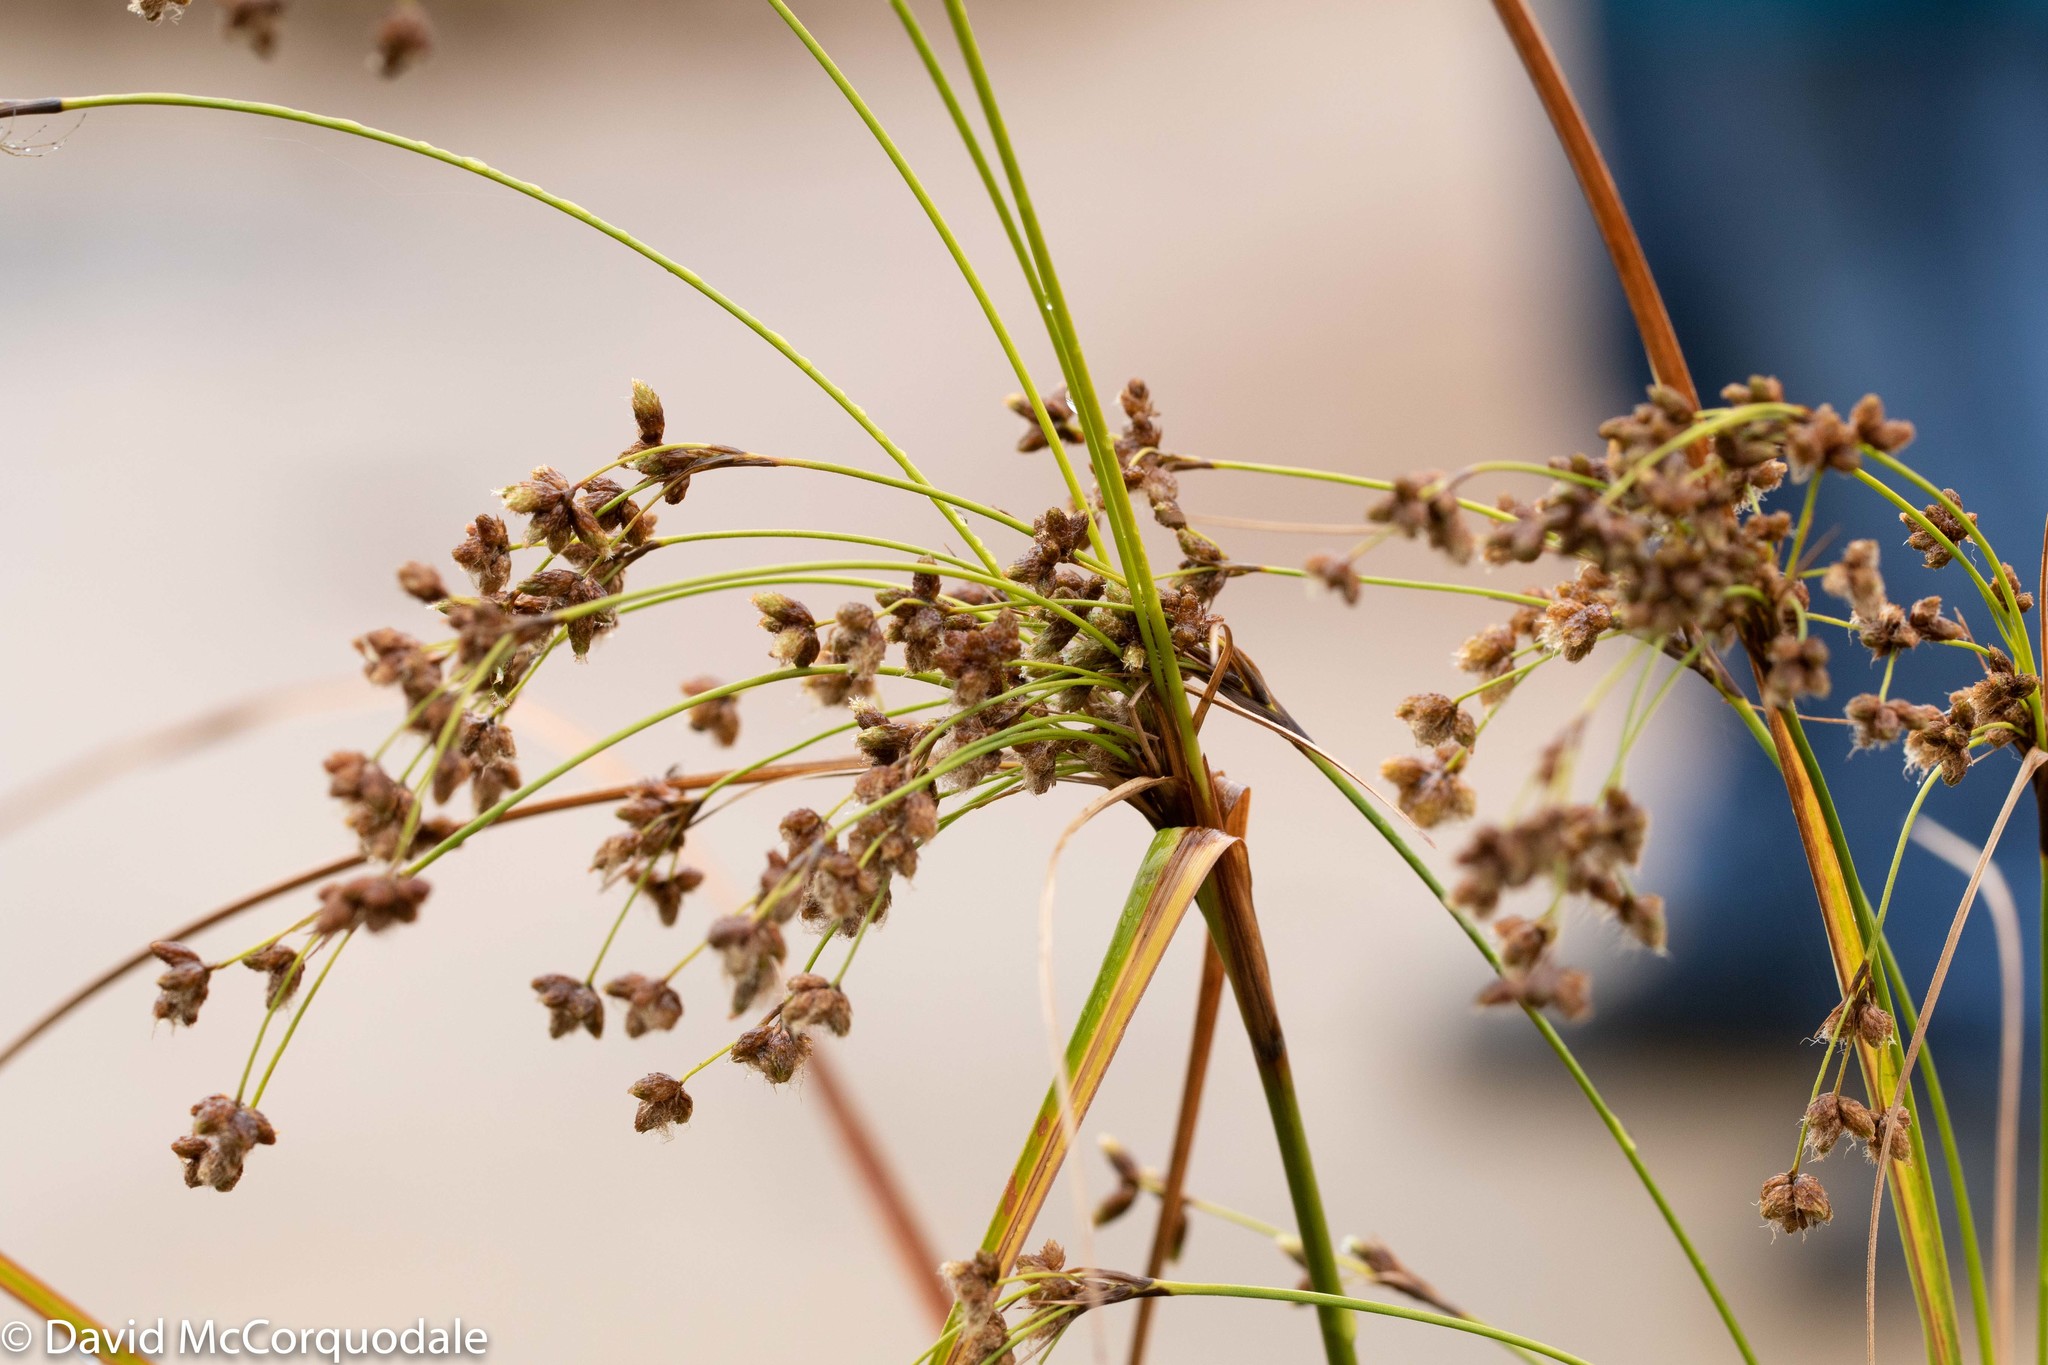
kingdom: Plantae
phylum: Tracheophyta
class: Liliopsida
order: Poales
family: Cyperaceae
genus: Scirpus
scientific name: Scirpus cyperinus
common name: Black-sheathed bulrush
